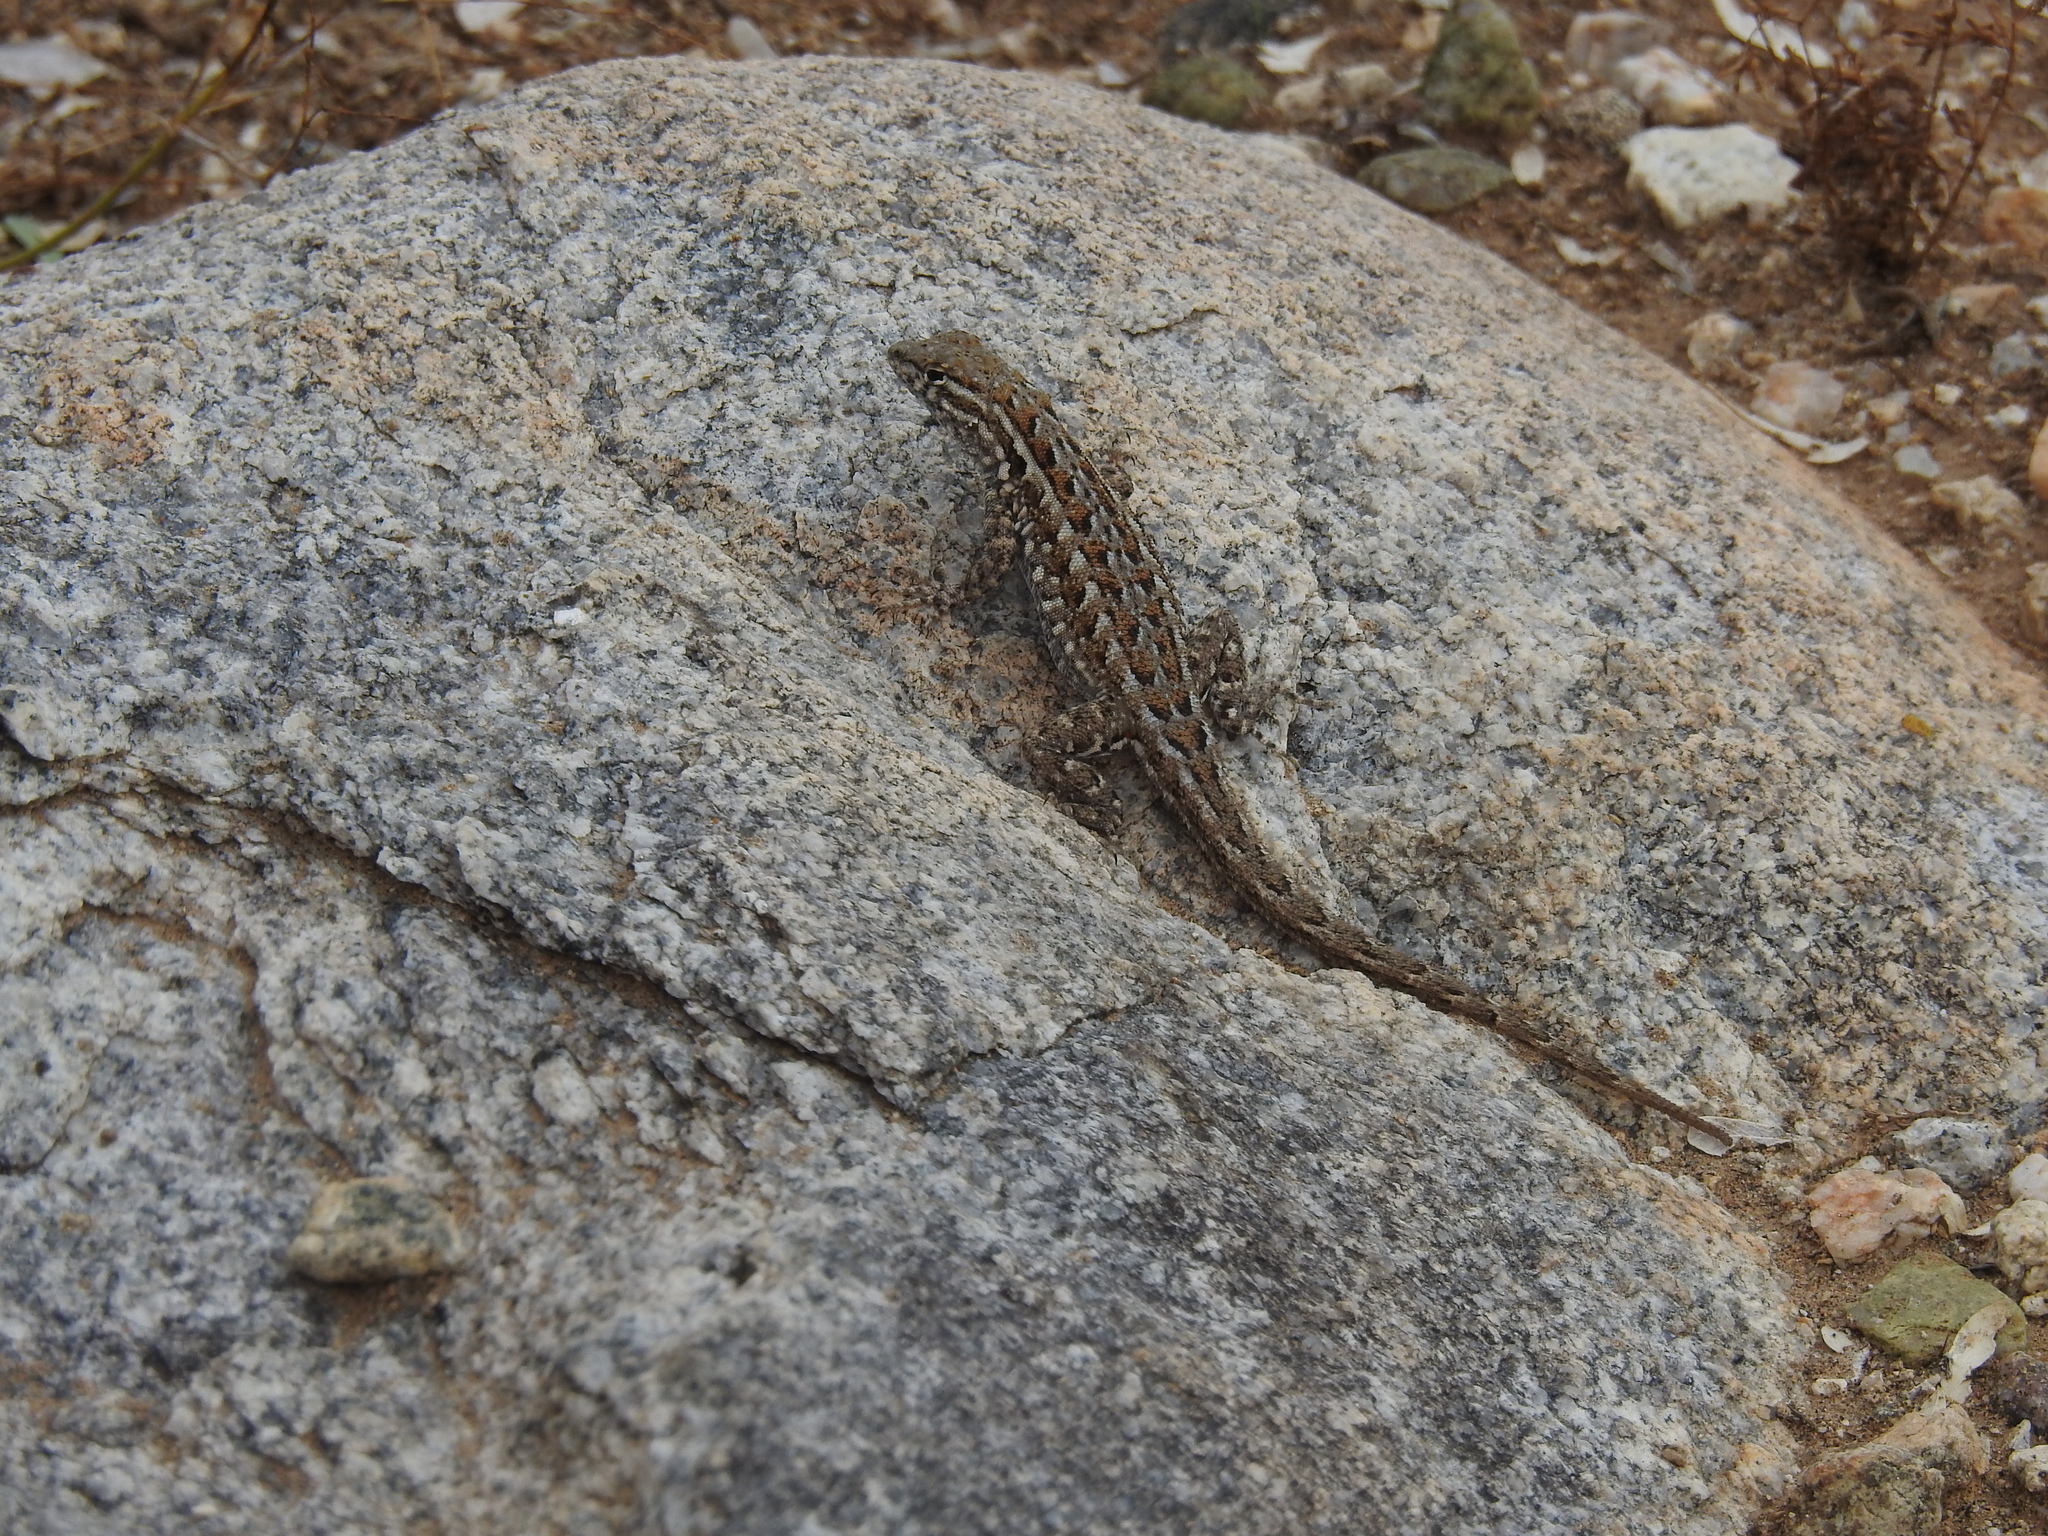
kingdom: Animalia
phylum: Chordata
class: Squamata
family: Phrynosomatidae
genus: Uta
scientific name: Uta stansburiana
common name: Side-blotched lizard
